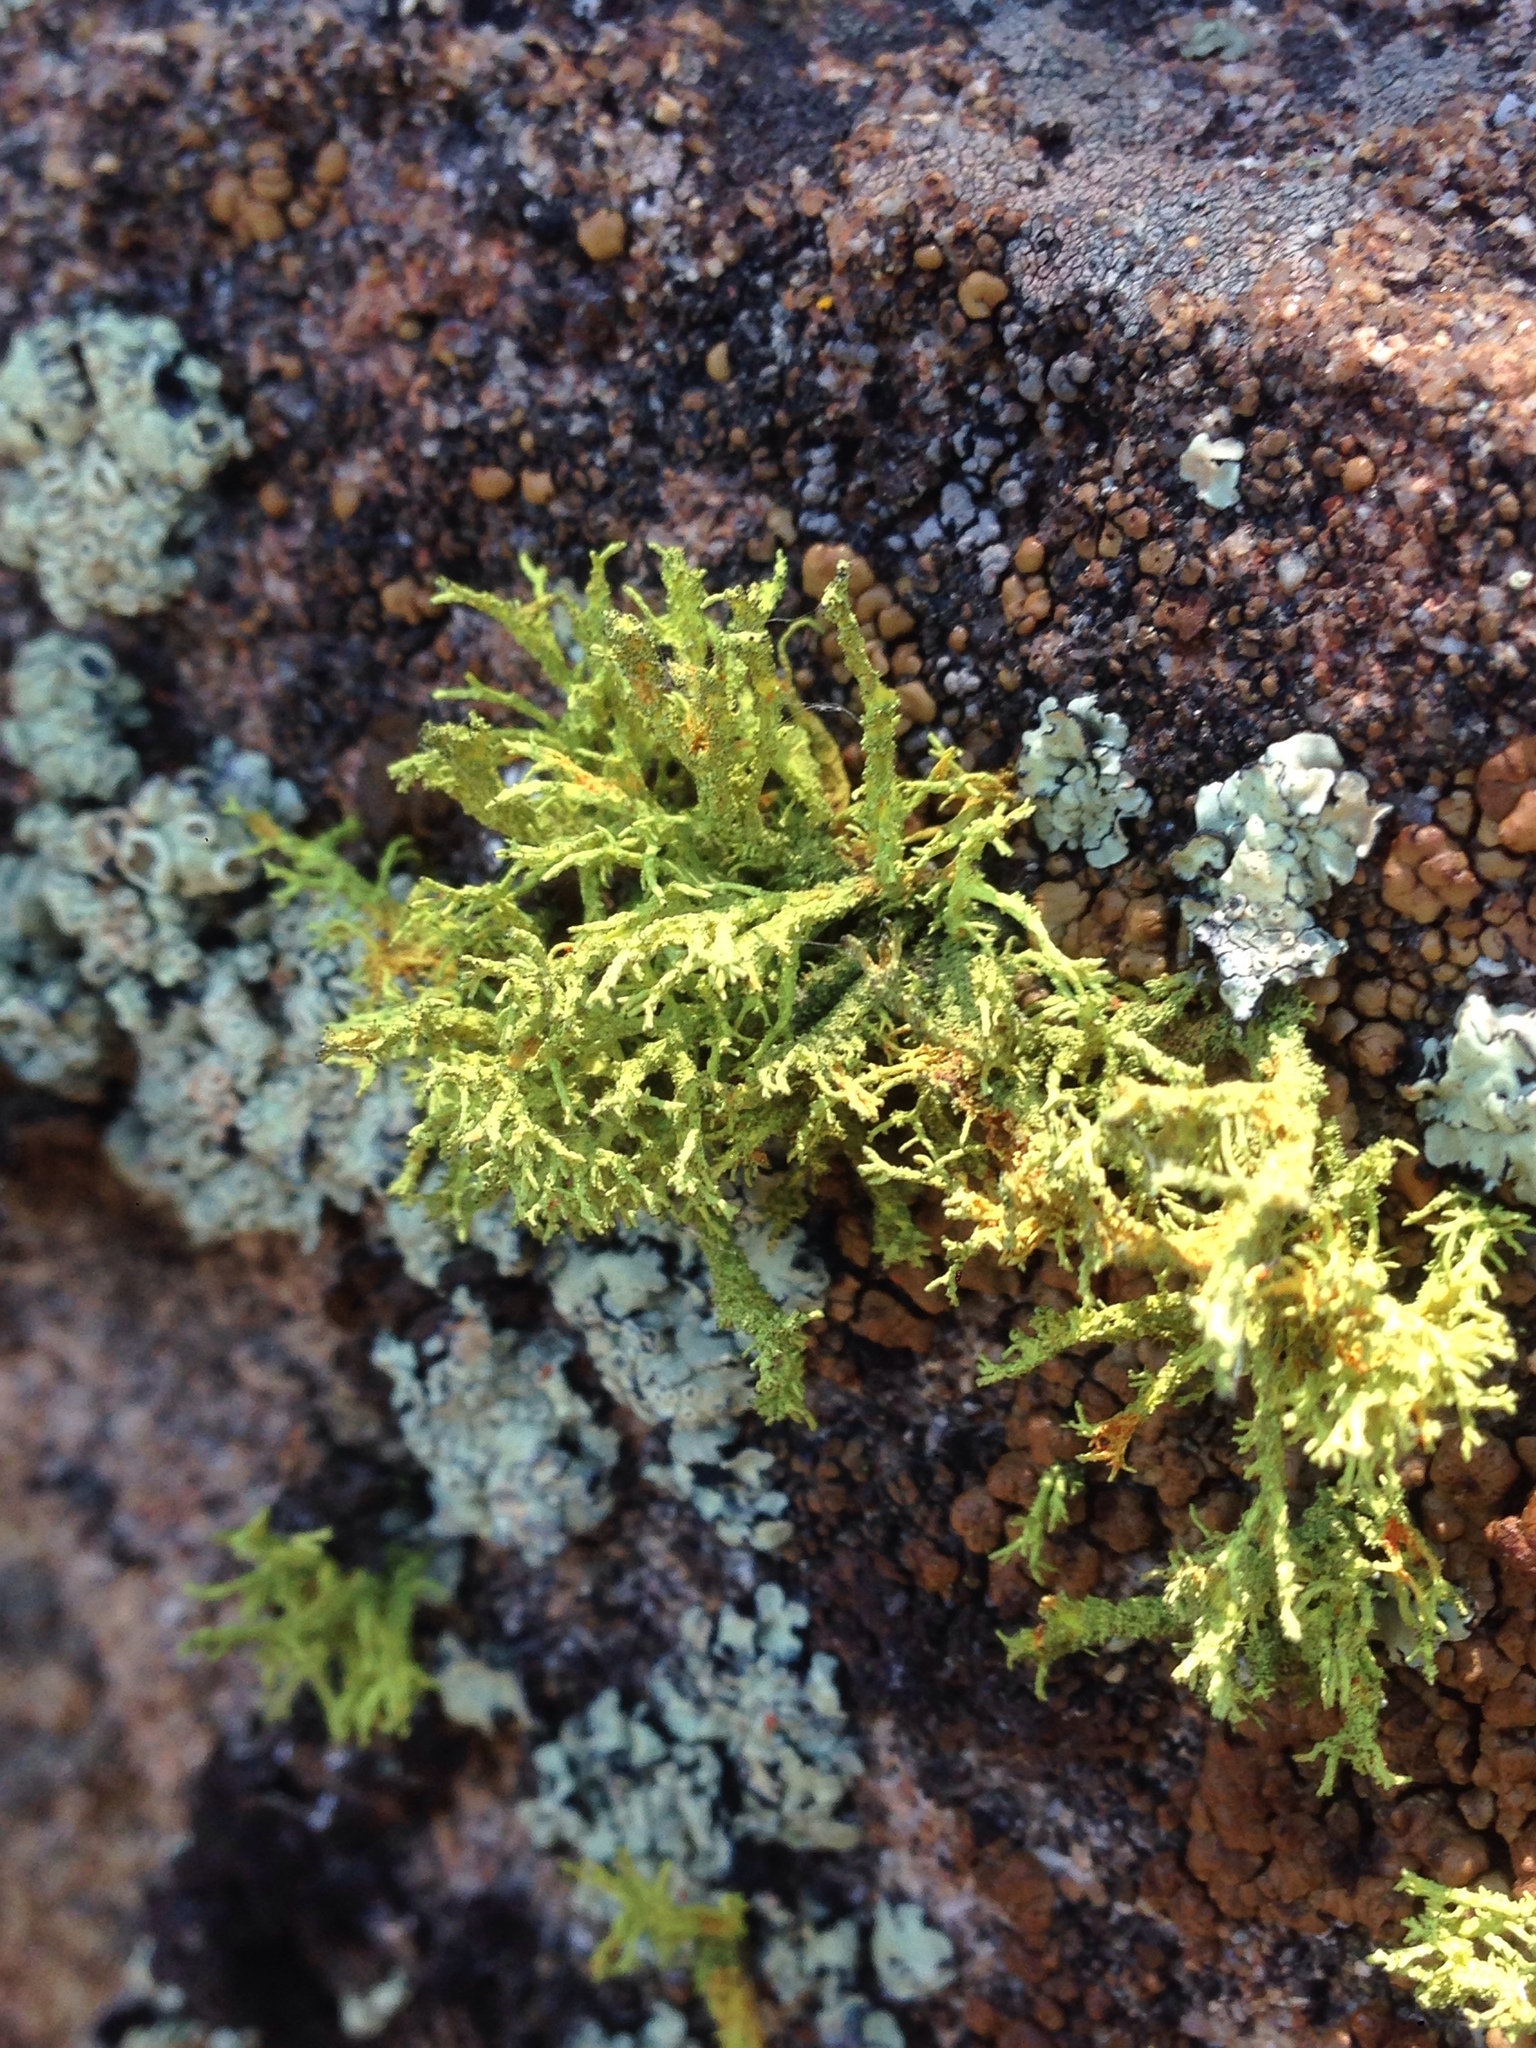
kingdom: Fungi
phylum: Ascomycota
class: Lecanoromycetes
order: Lecanorales
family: Parmeliaceae
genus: Letharia
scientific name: Letharia vulpina
